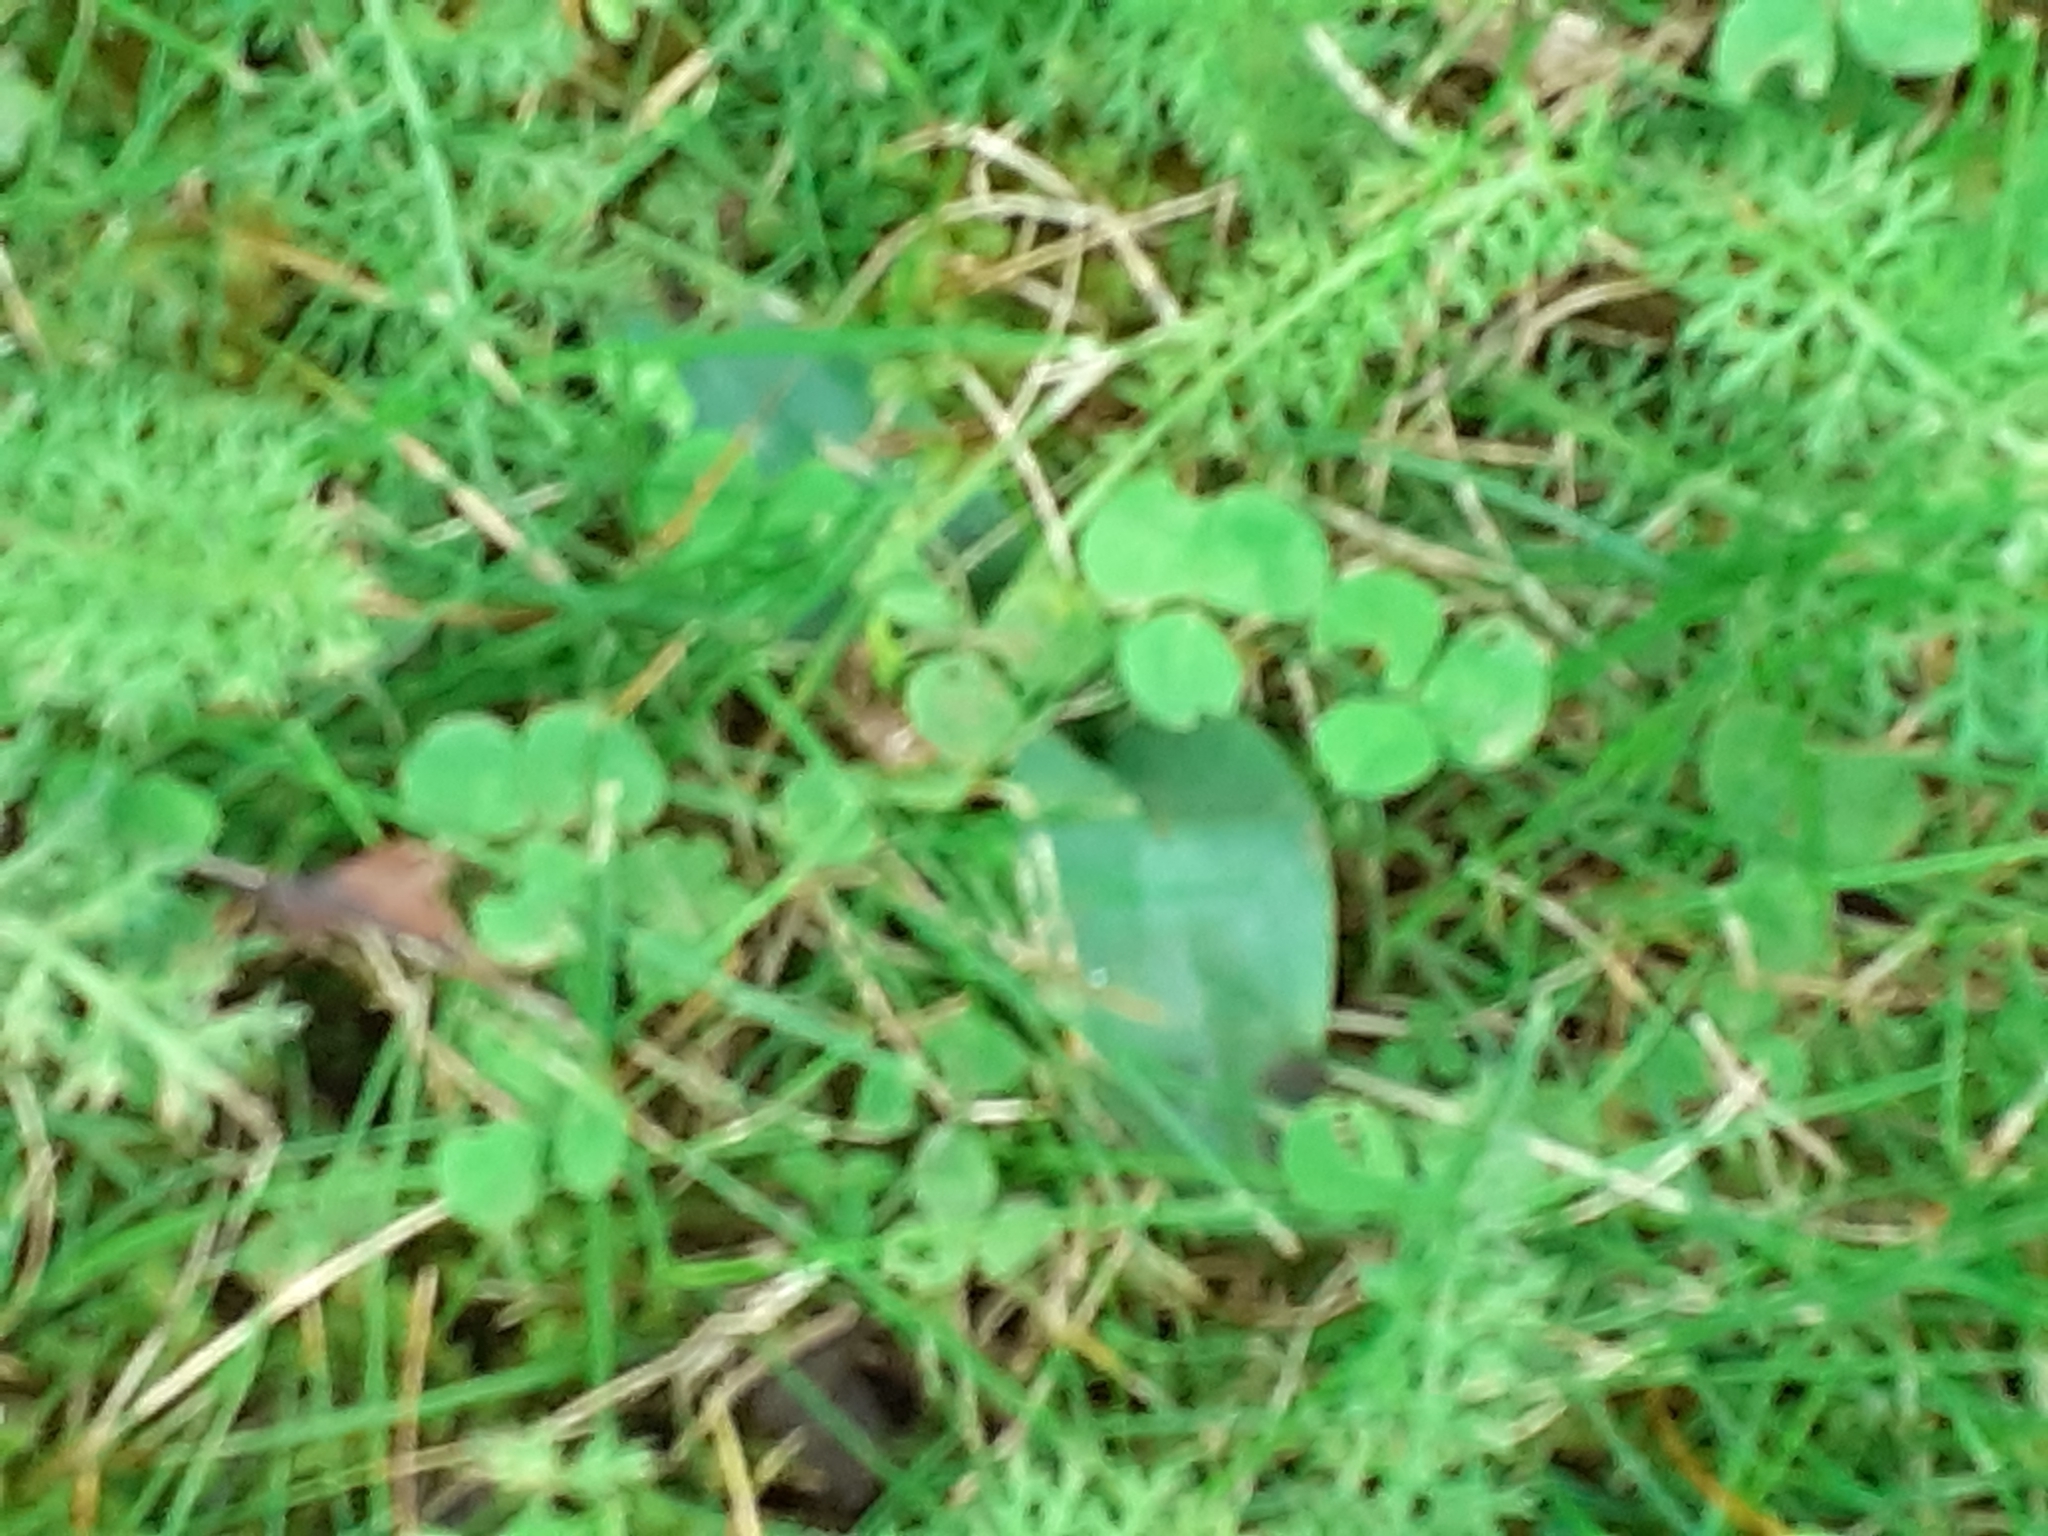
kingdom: Plantae
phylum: Tracheophyta
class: Liliopsida
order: Asparagales
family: Orchidaceae
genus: Ophrys
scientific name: Ophrys apifera
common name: Bee orchid
